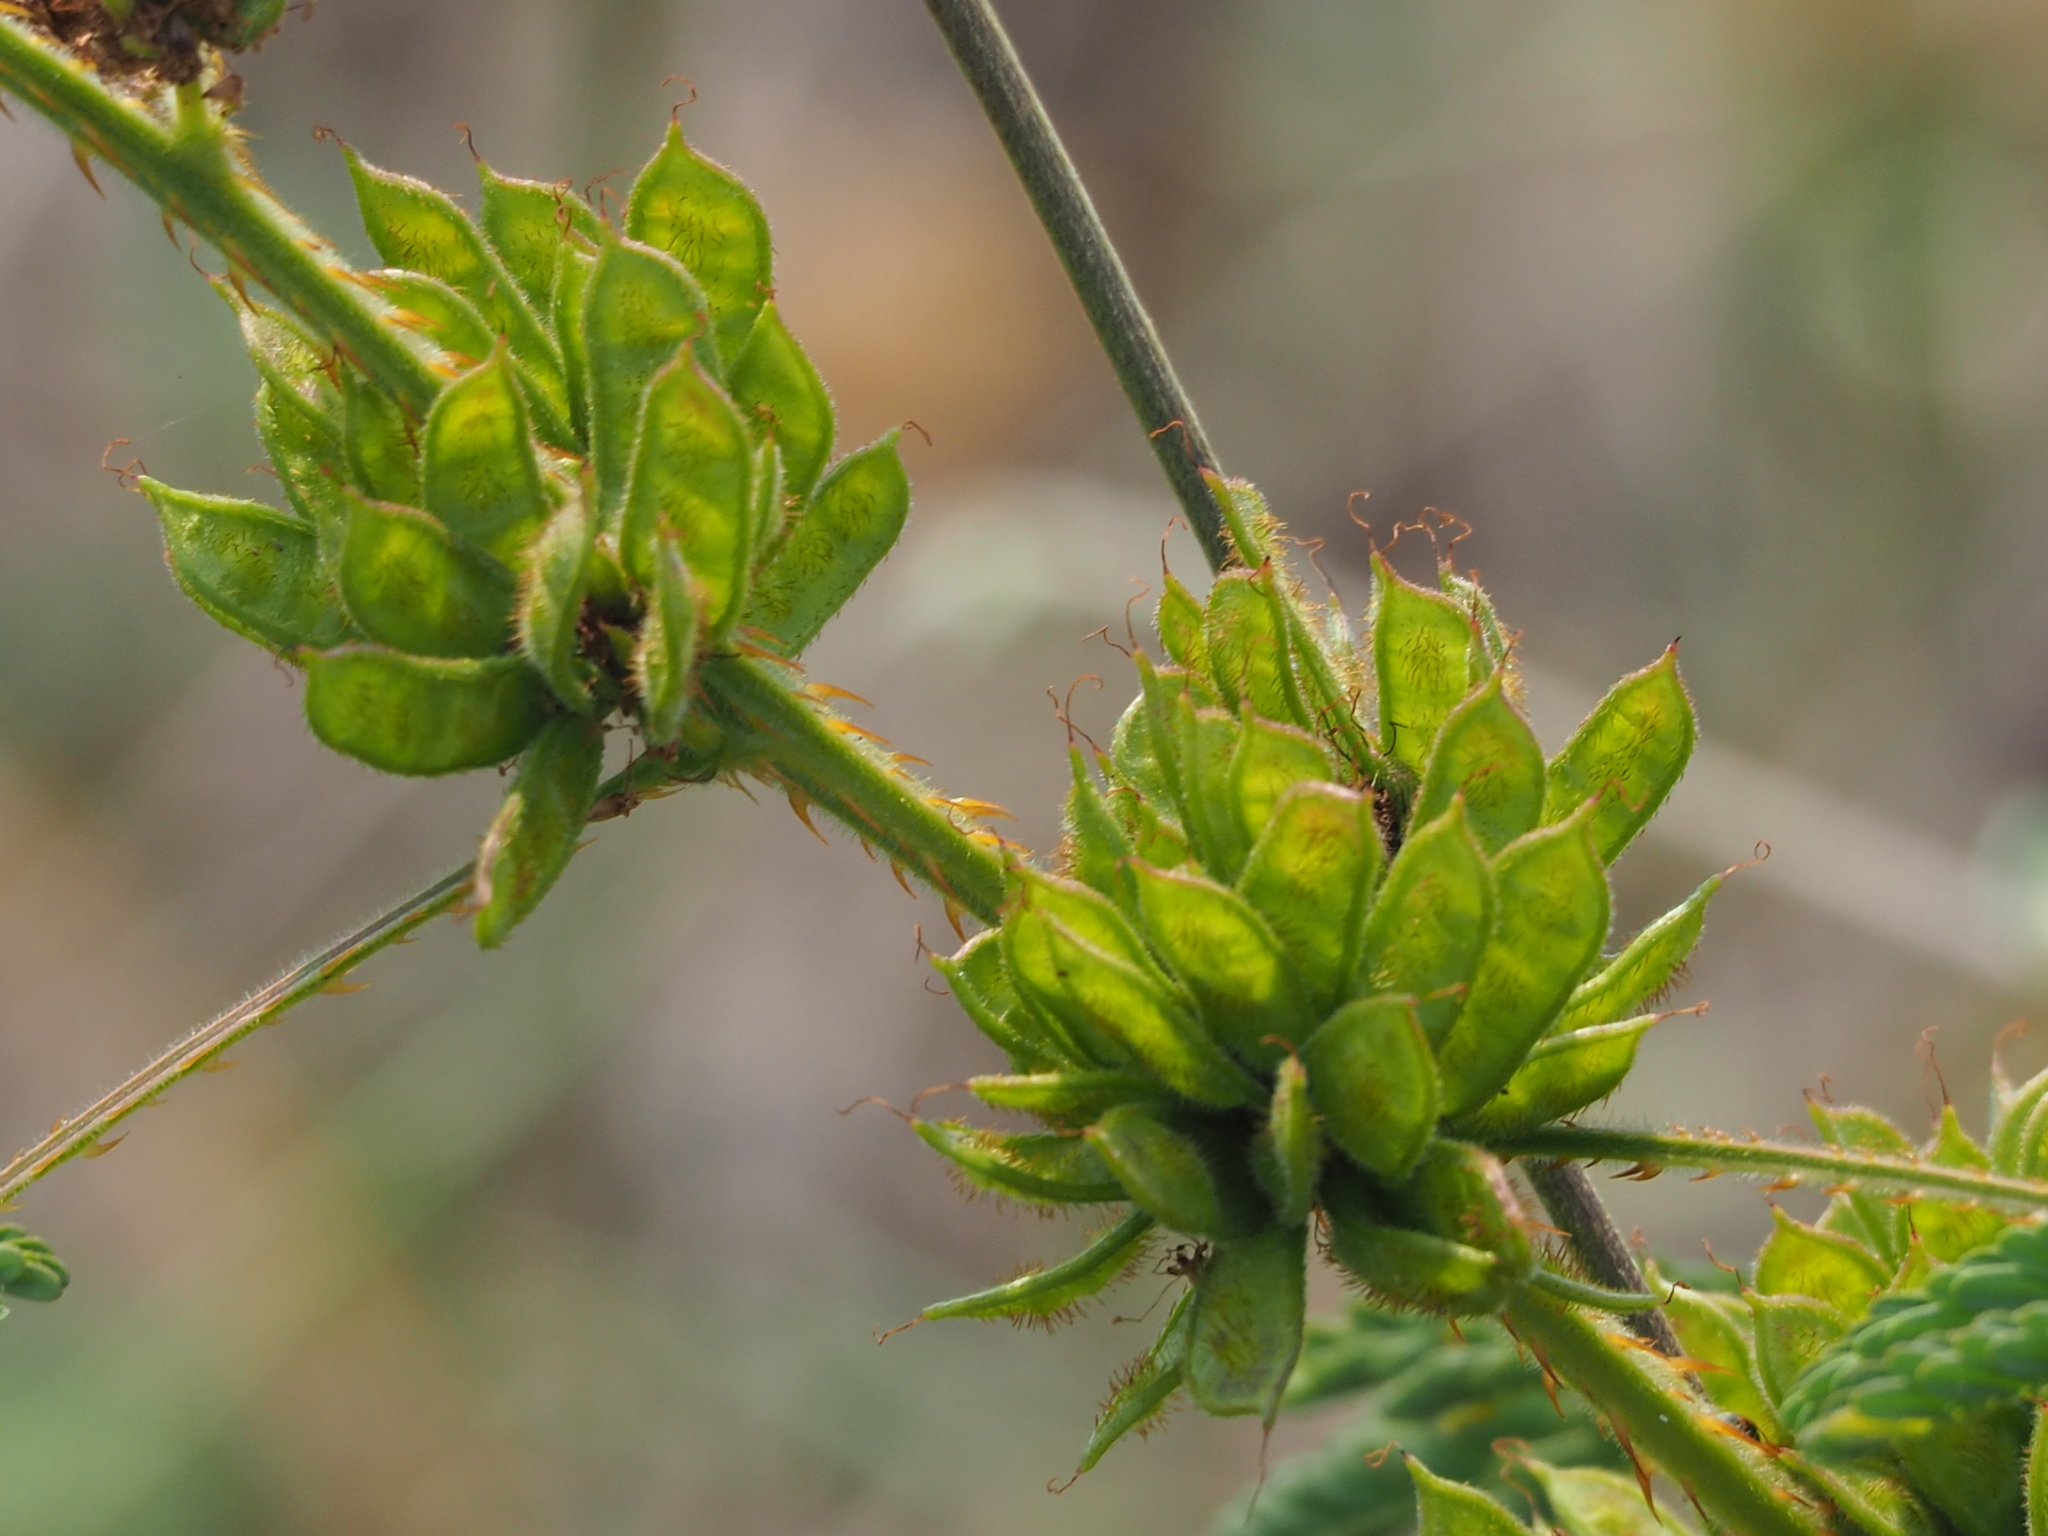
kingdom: Plantae
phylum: Tracheophyta
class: Magnoliopsida
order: Fabales
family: Fabaceae
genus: Mimosa
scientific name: Mimosa diplotricha
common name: Giant sensitive-plant
